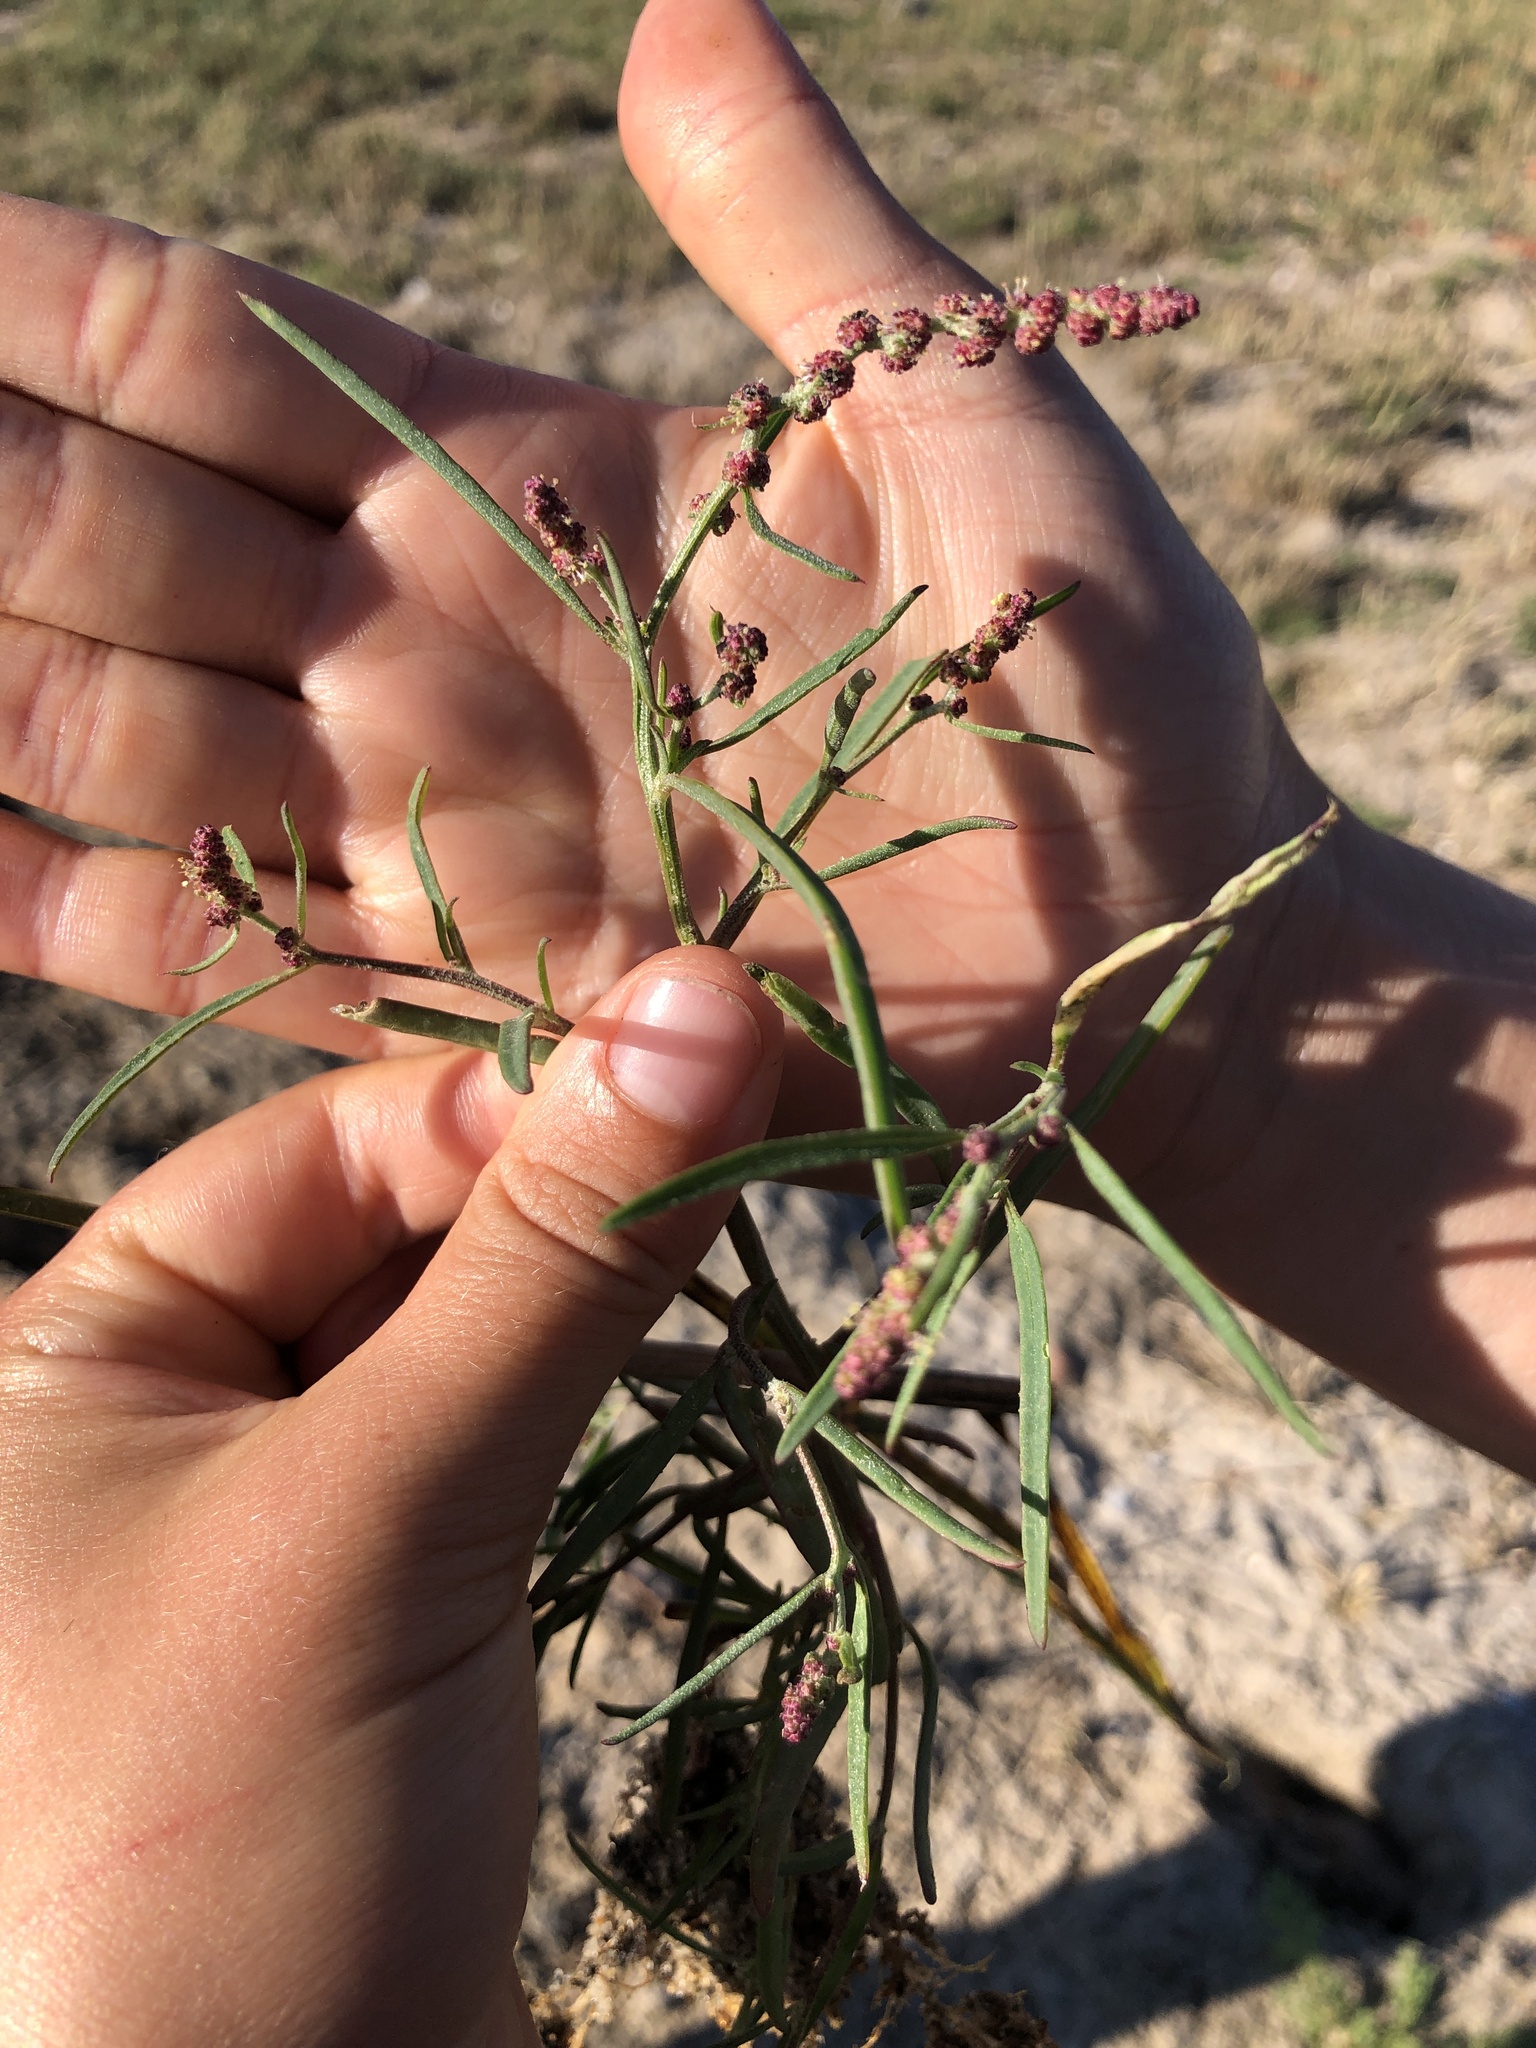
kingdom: Plantae
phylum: Tracheophyta
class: Magnoliopsida
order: Caryophyllales
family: Amaranthaceae
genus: Atriplex
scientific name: Atriplex littoralis
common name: Grass-leaved orache
